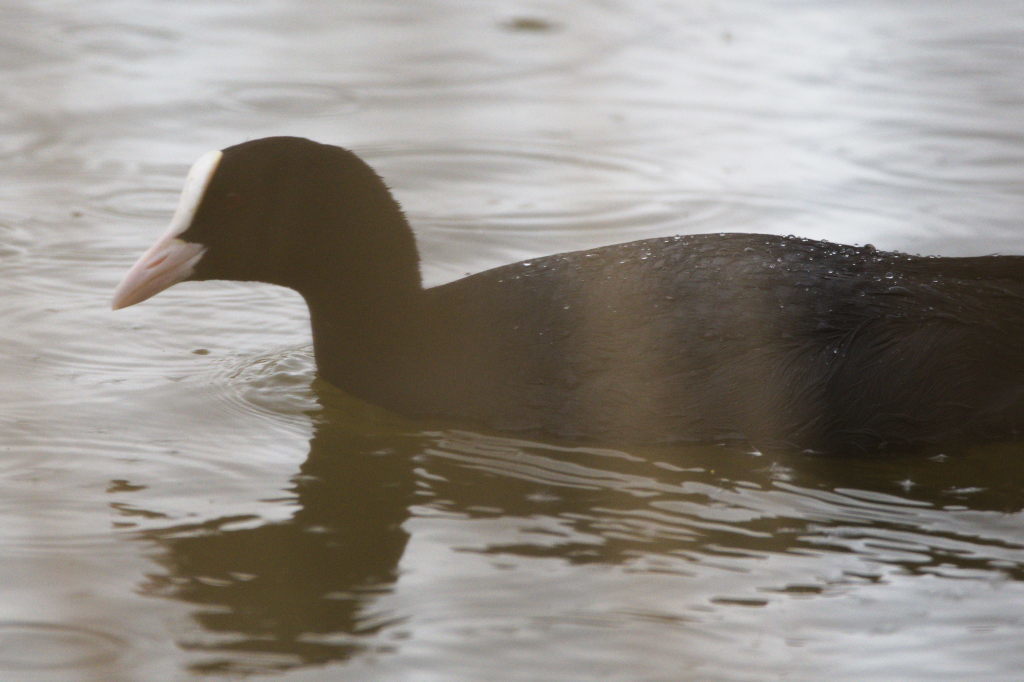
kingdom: Animalia
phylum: Chordata
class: Aves
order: Gruiformes
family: Rallidae
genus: Fulica
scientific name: Fulica atra
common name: Eurasian coot
